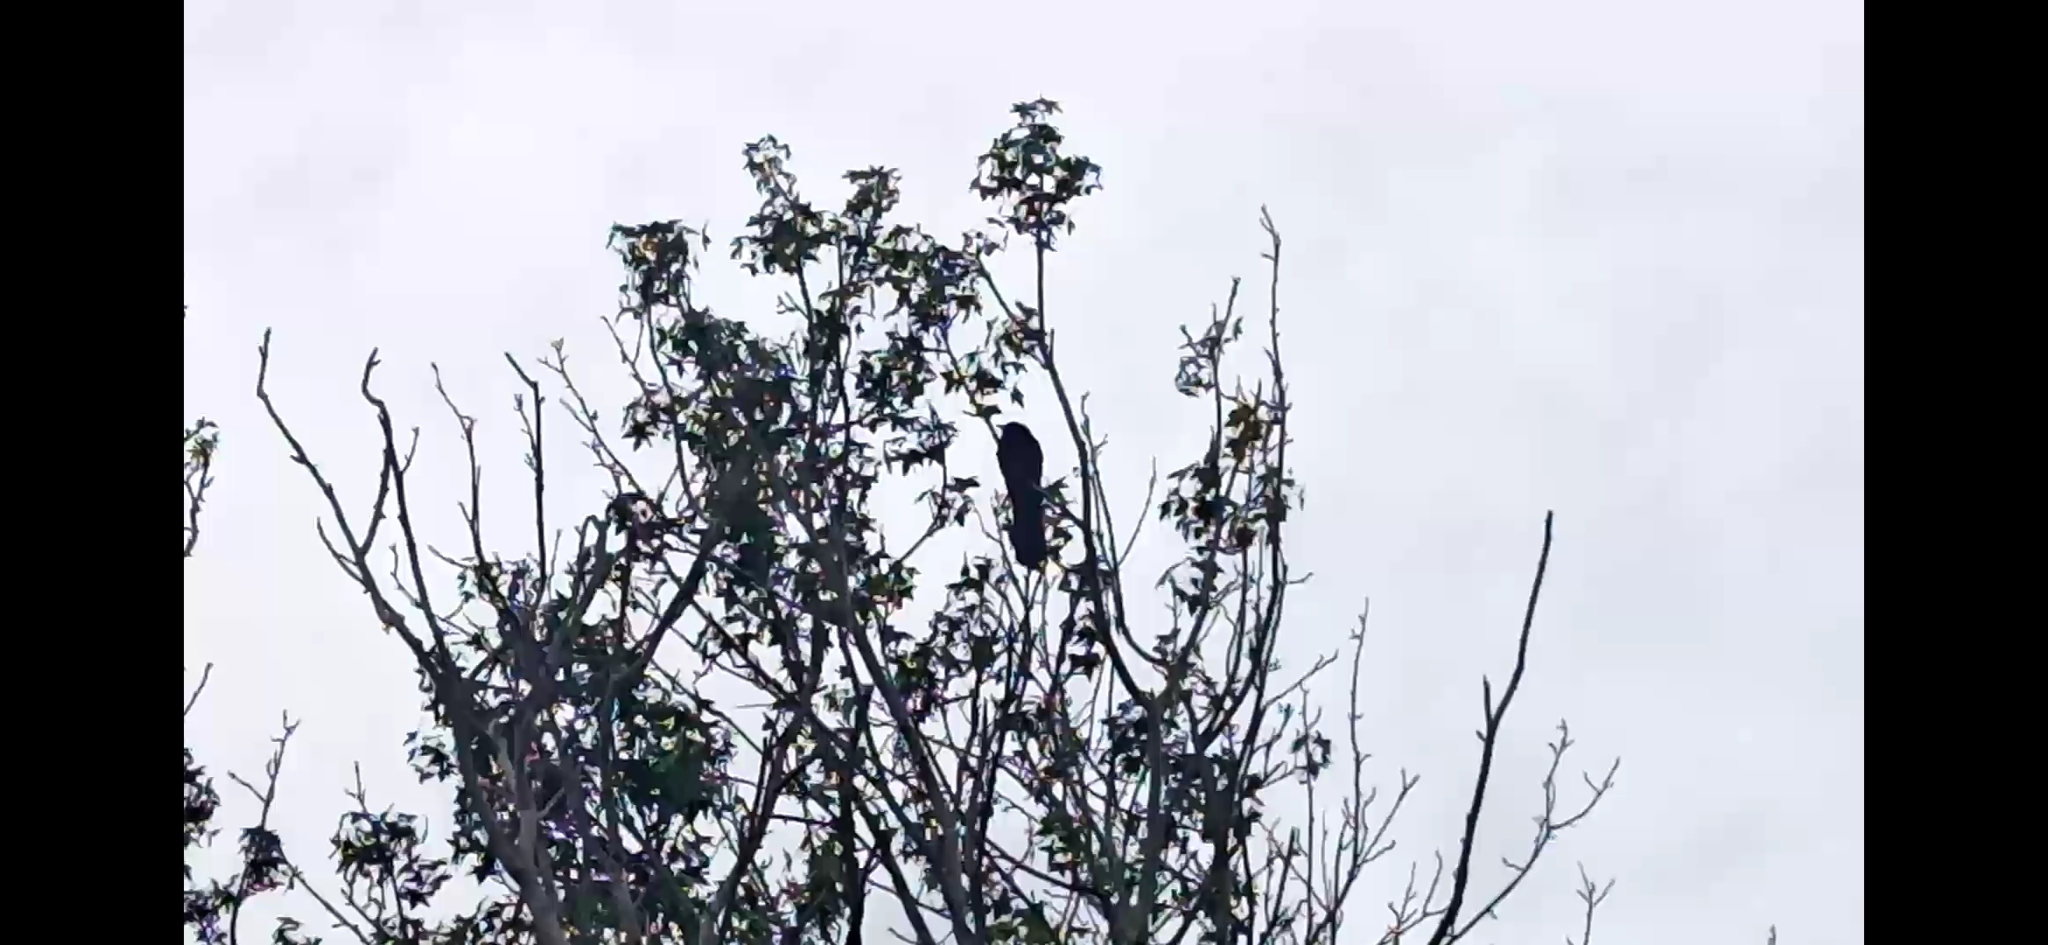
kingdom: Animalia
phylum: Chordata
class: Aves
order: Cuculiformes
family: Cuculidae
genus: Eudynamys
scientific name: Eudynamys orientalis
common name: Pacific koel
